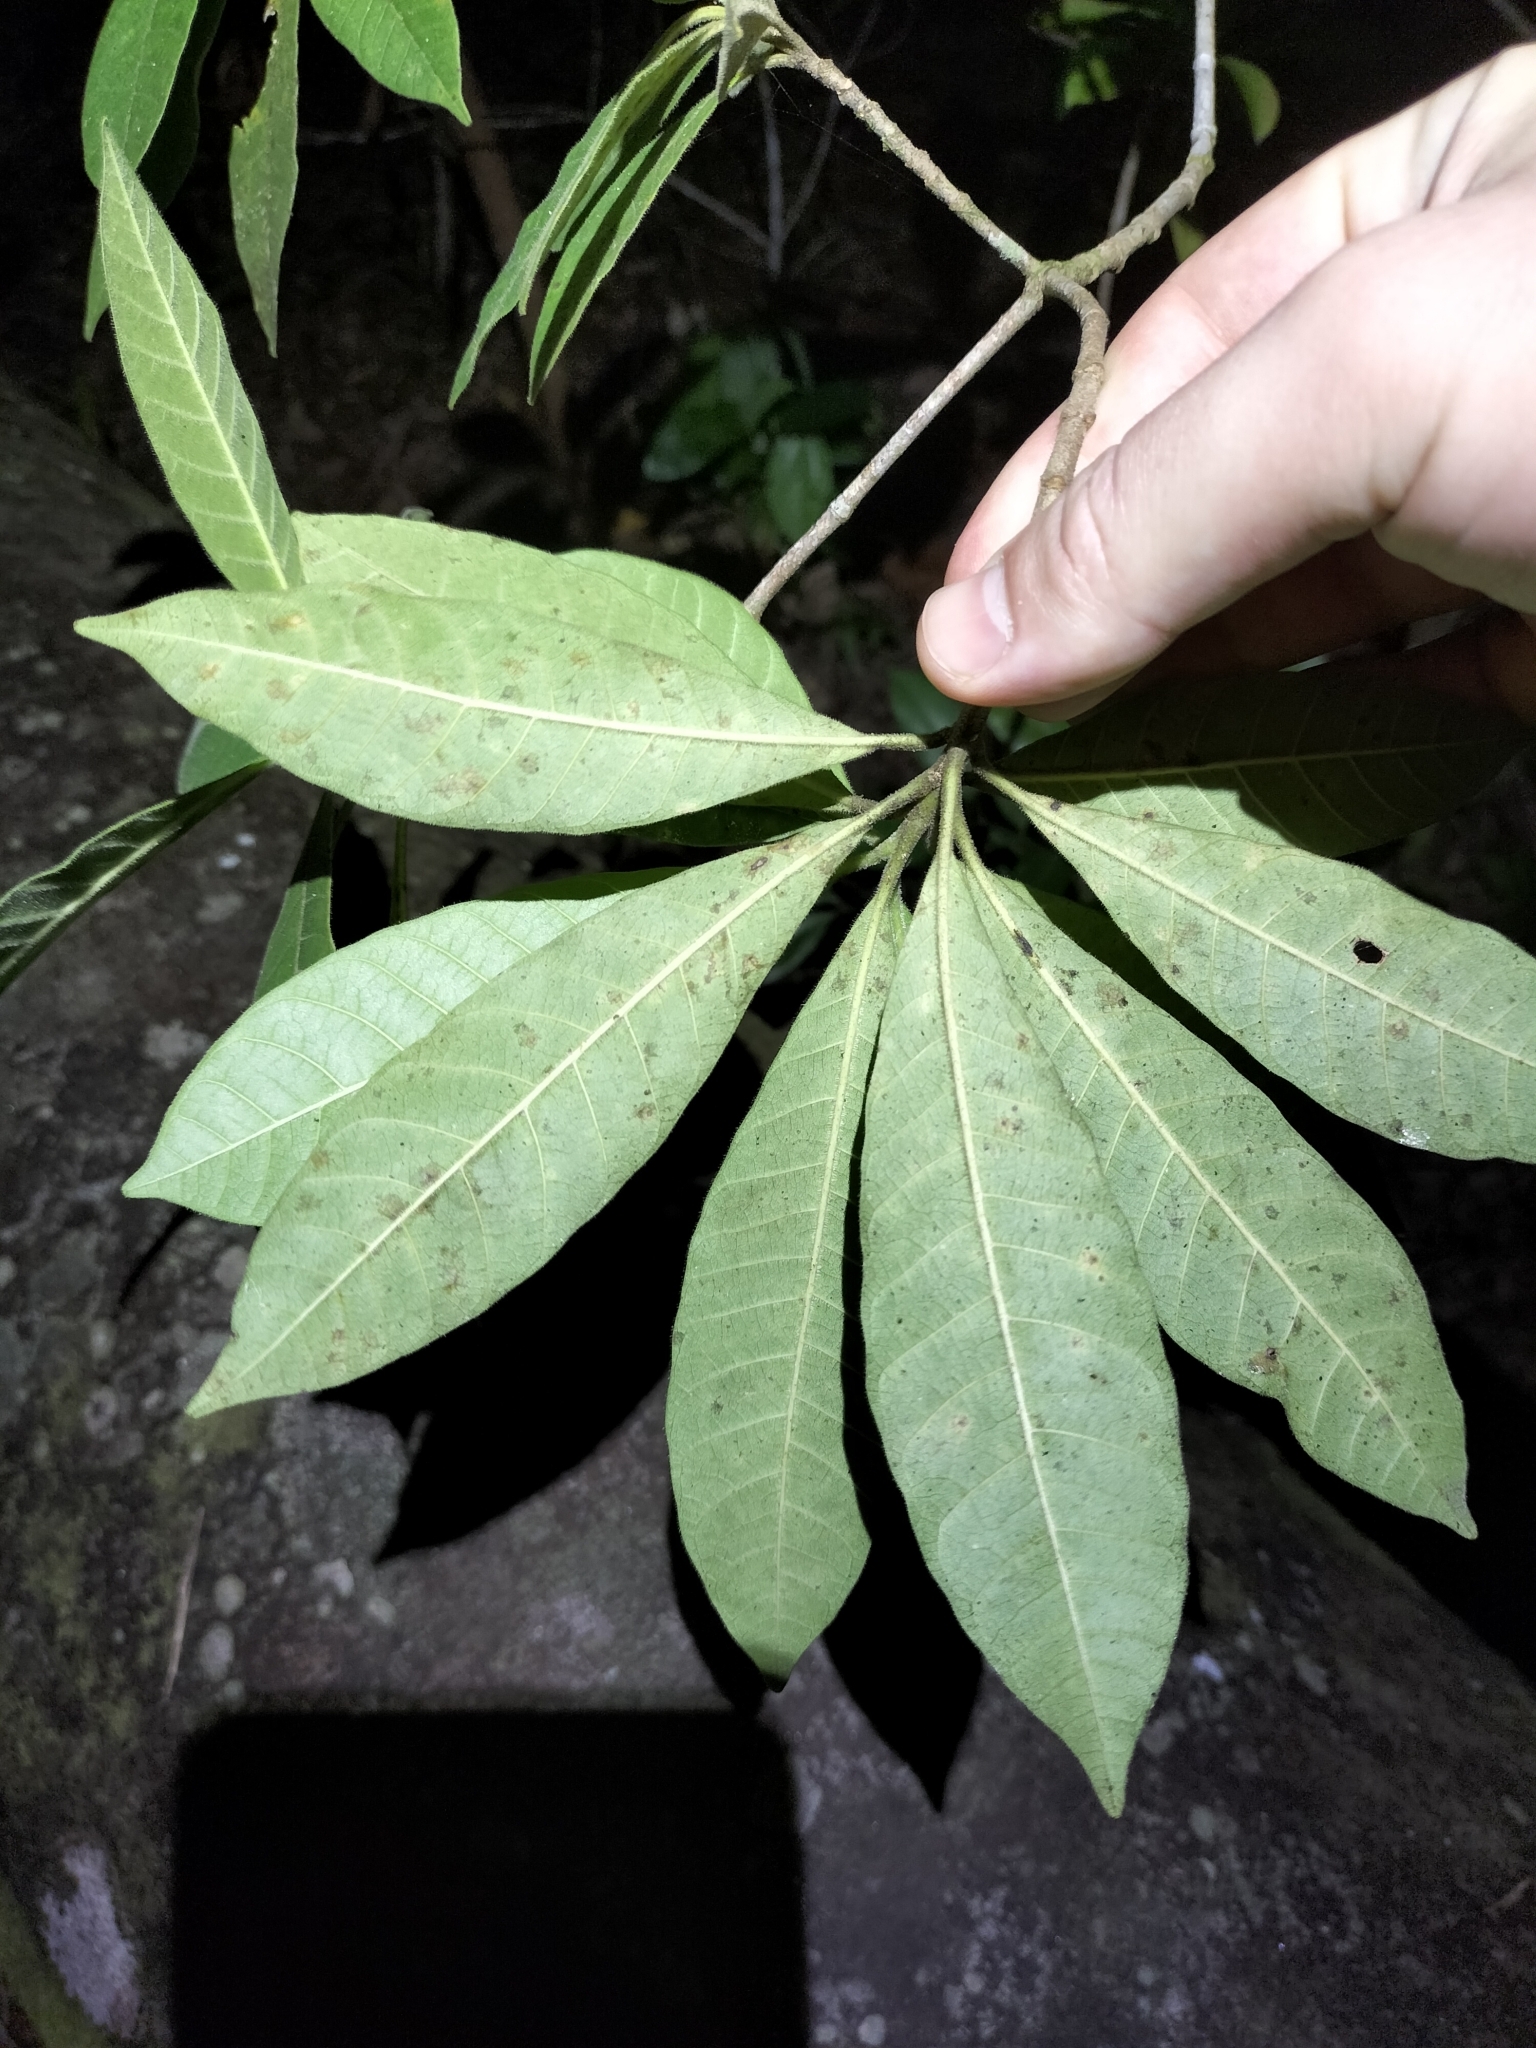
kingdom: Plantae
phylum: Tracheophyta
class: Magnoliopsida
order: Gentianales
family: Apocynaceae
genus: Alstonia
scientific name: Alstonia muelleriana
